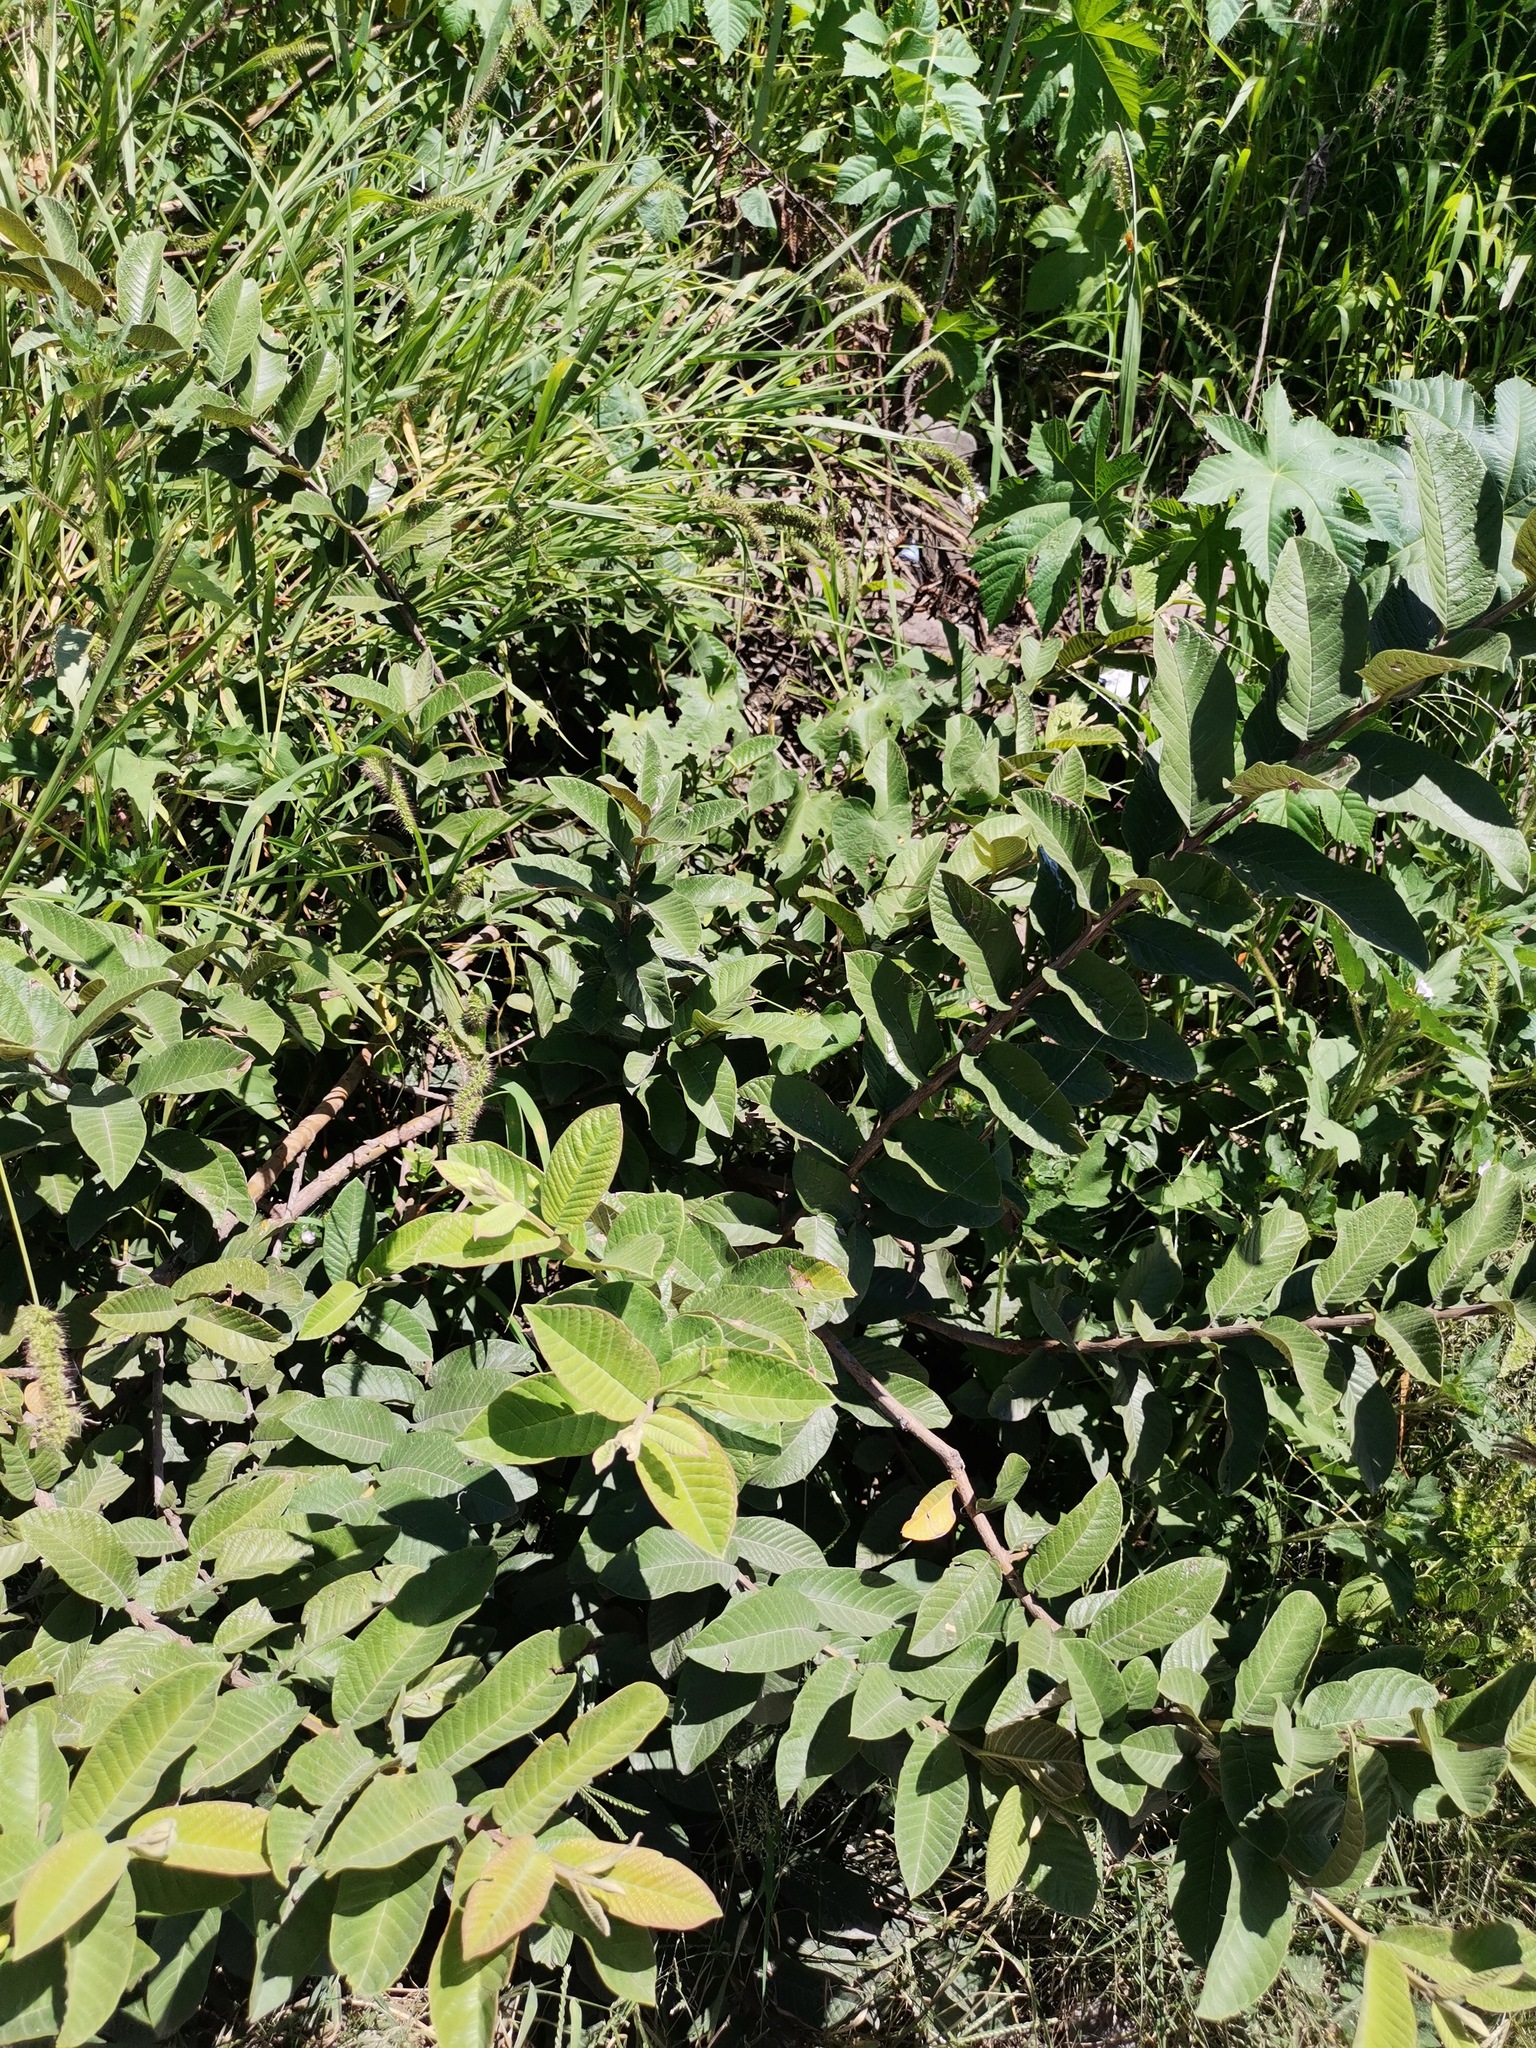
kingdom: Plantae
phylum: Tracheophyta
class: Magnoliopsida
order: Myrtales
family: Myrtaceae
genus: Psidium
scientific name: Psidium guajava
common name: Guava
